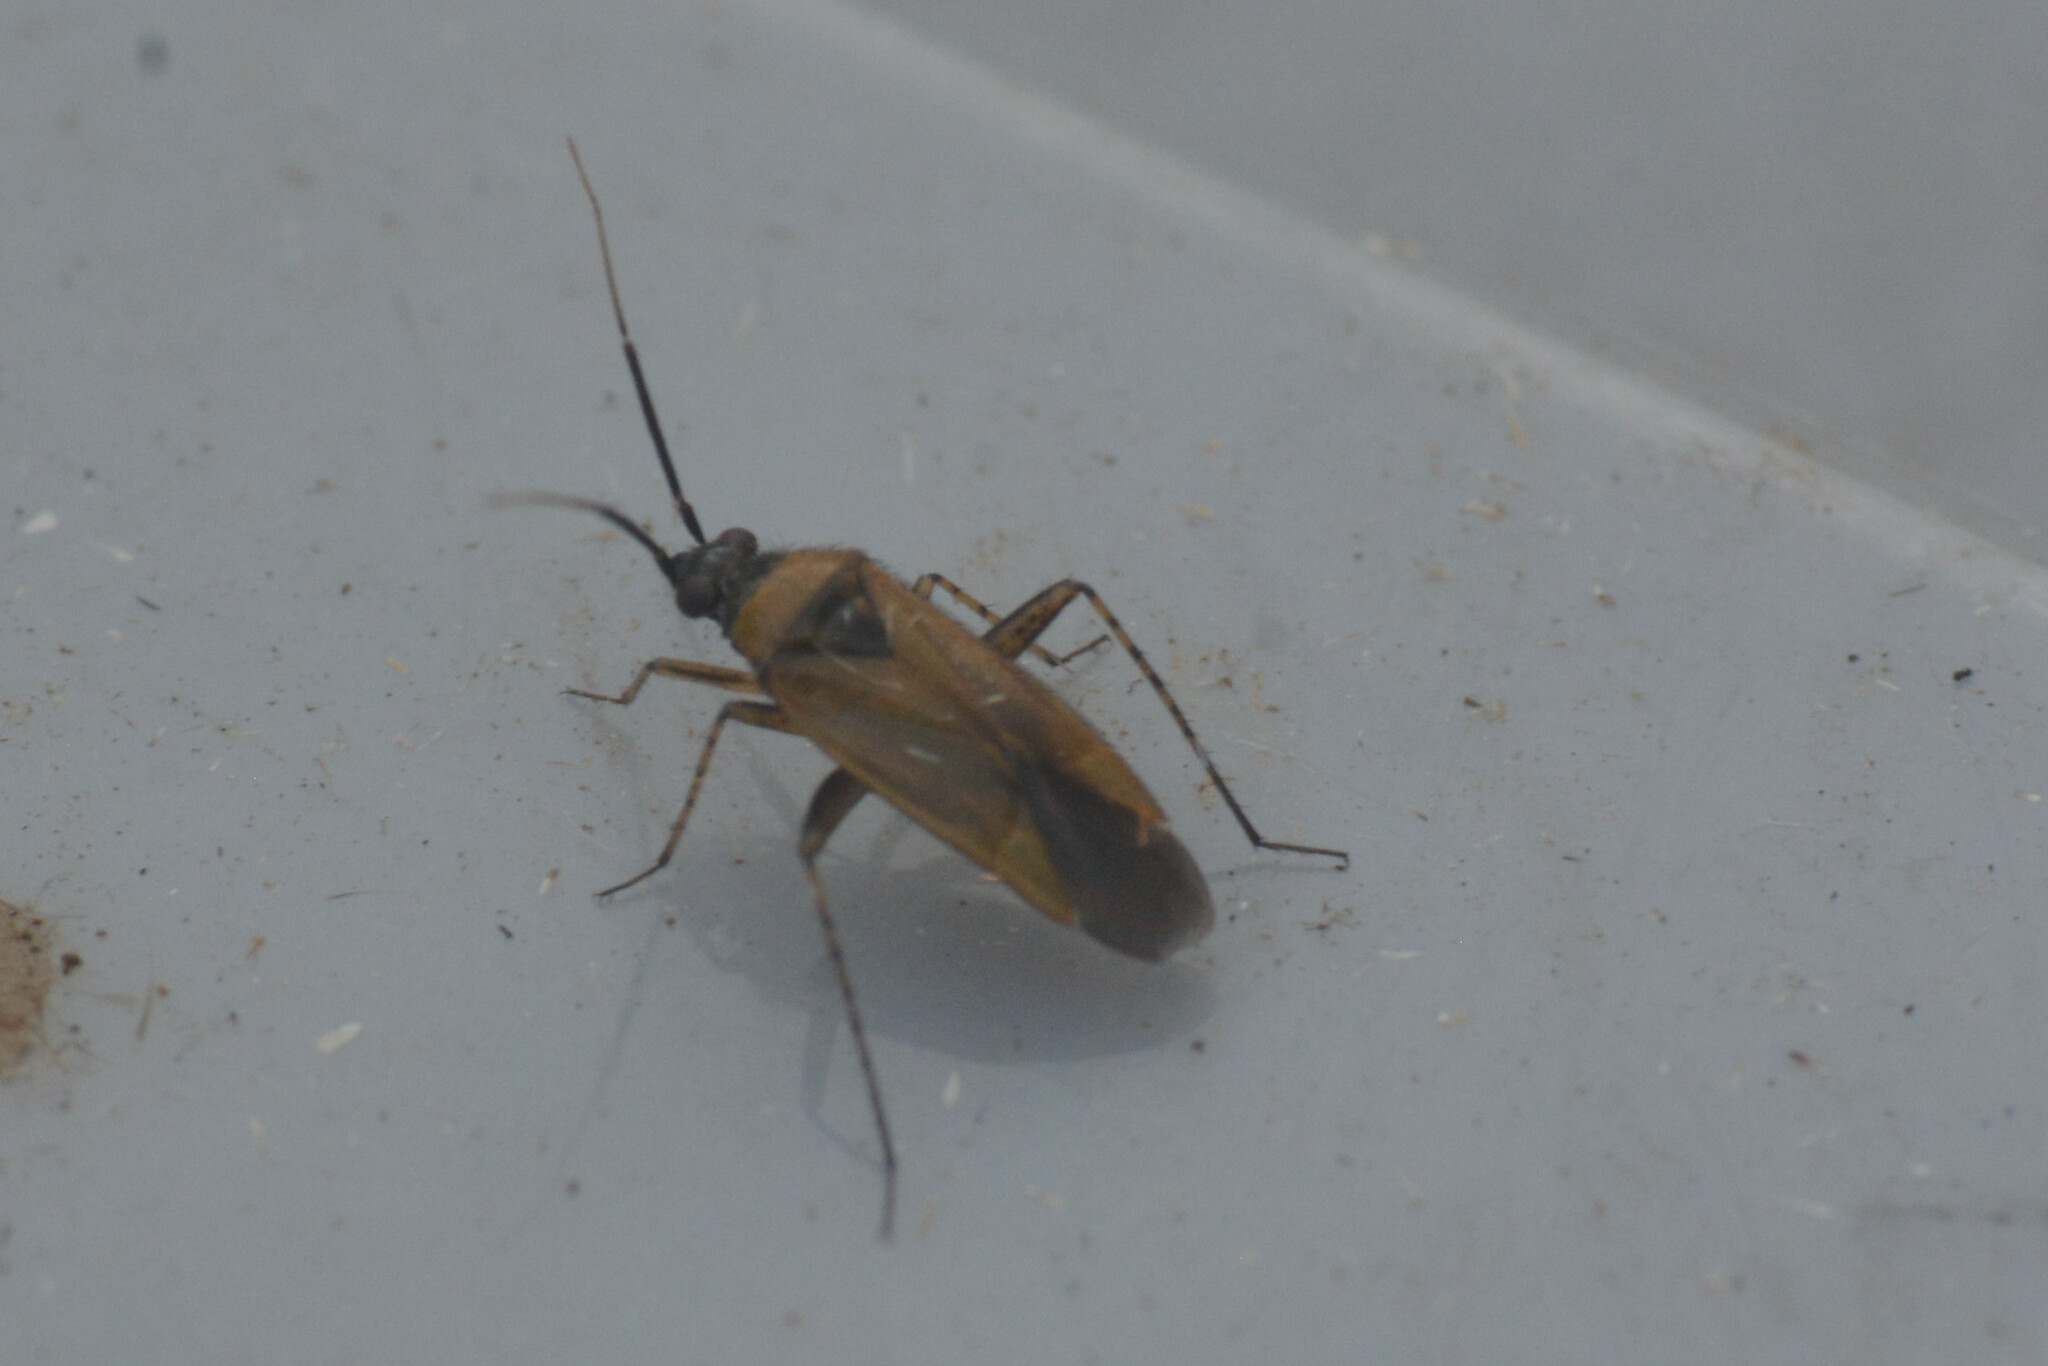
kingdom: Animalia
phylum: Arthropoda
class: Insecta
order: Hemiptera
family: Miridae
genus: Plagiognathus
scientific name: Plagiognathus arbustorum
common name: Plant bug
